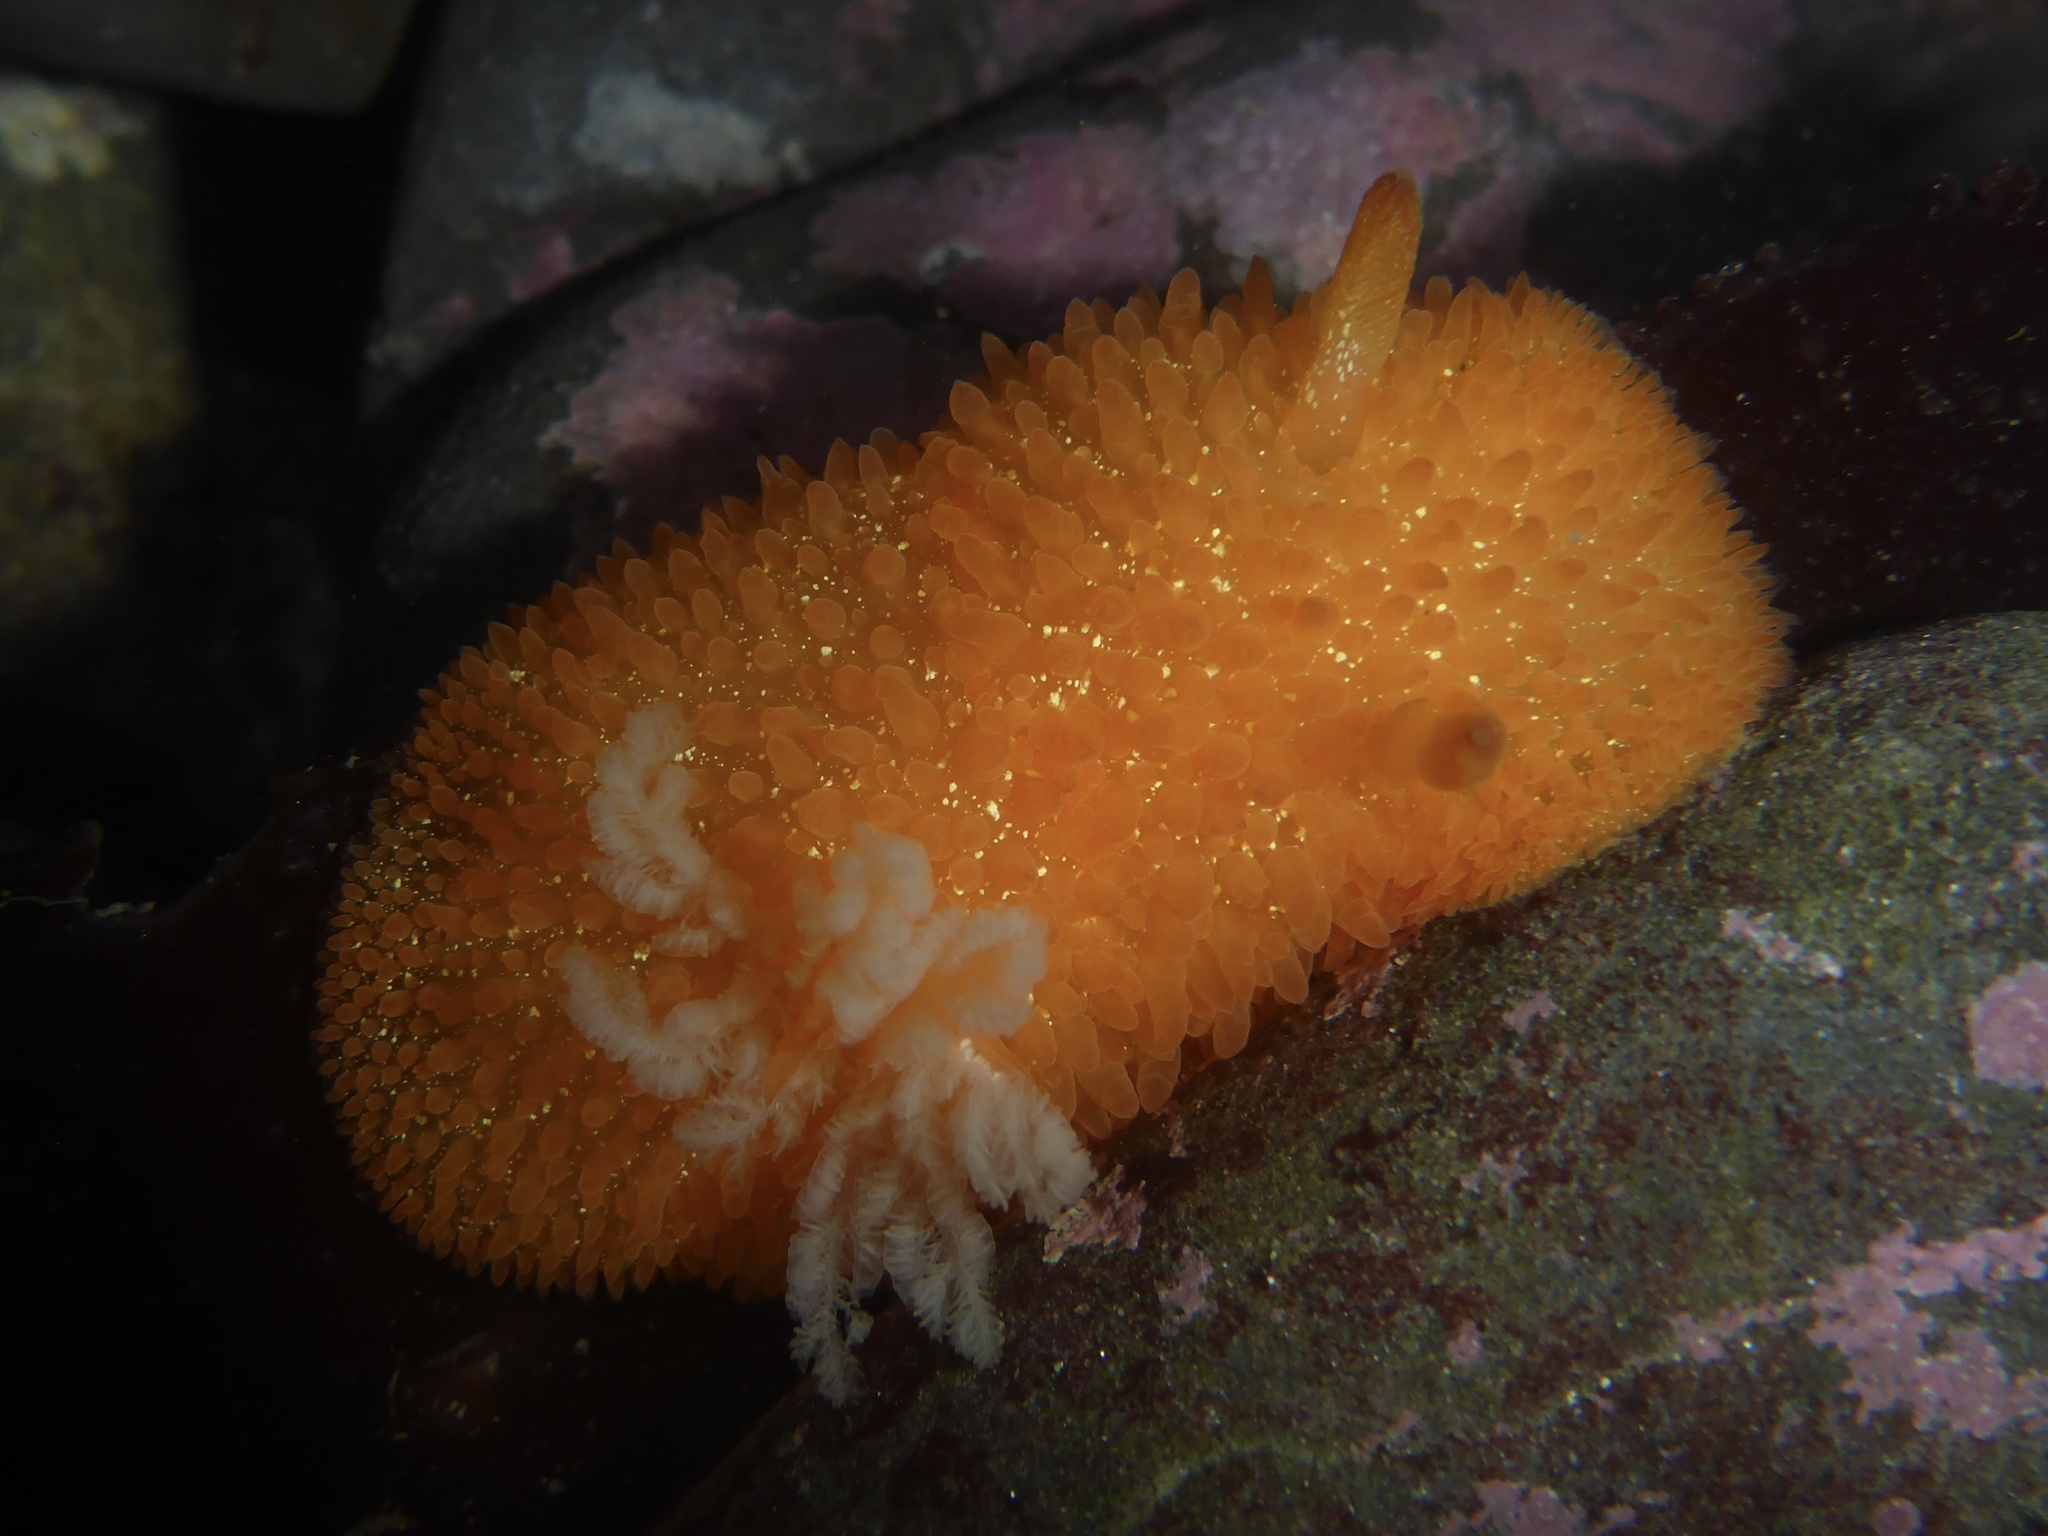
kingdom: Animalia
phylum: Mollusca
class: Gastropoda
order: Nudibranchia
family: Onchidorididae
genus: Acanthodoris
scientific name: Acanthodoris lutea
